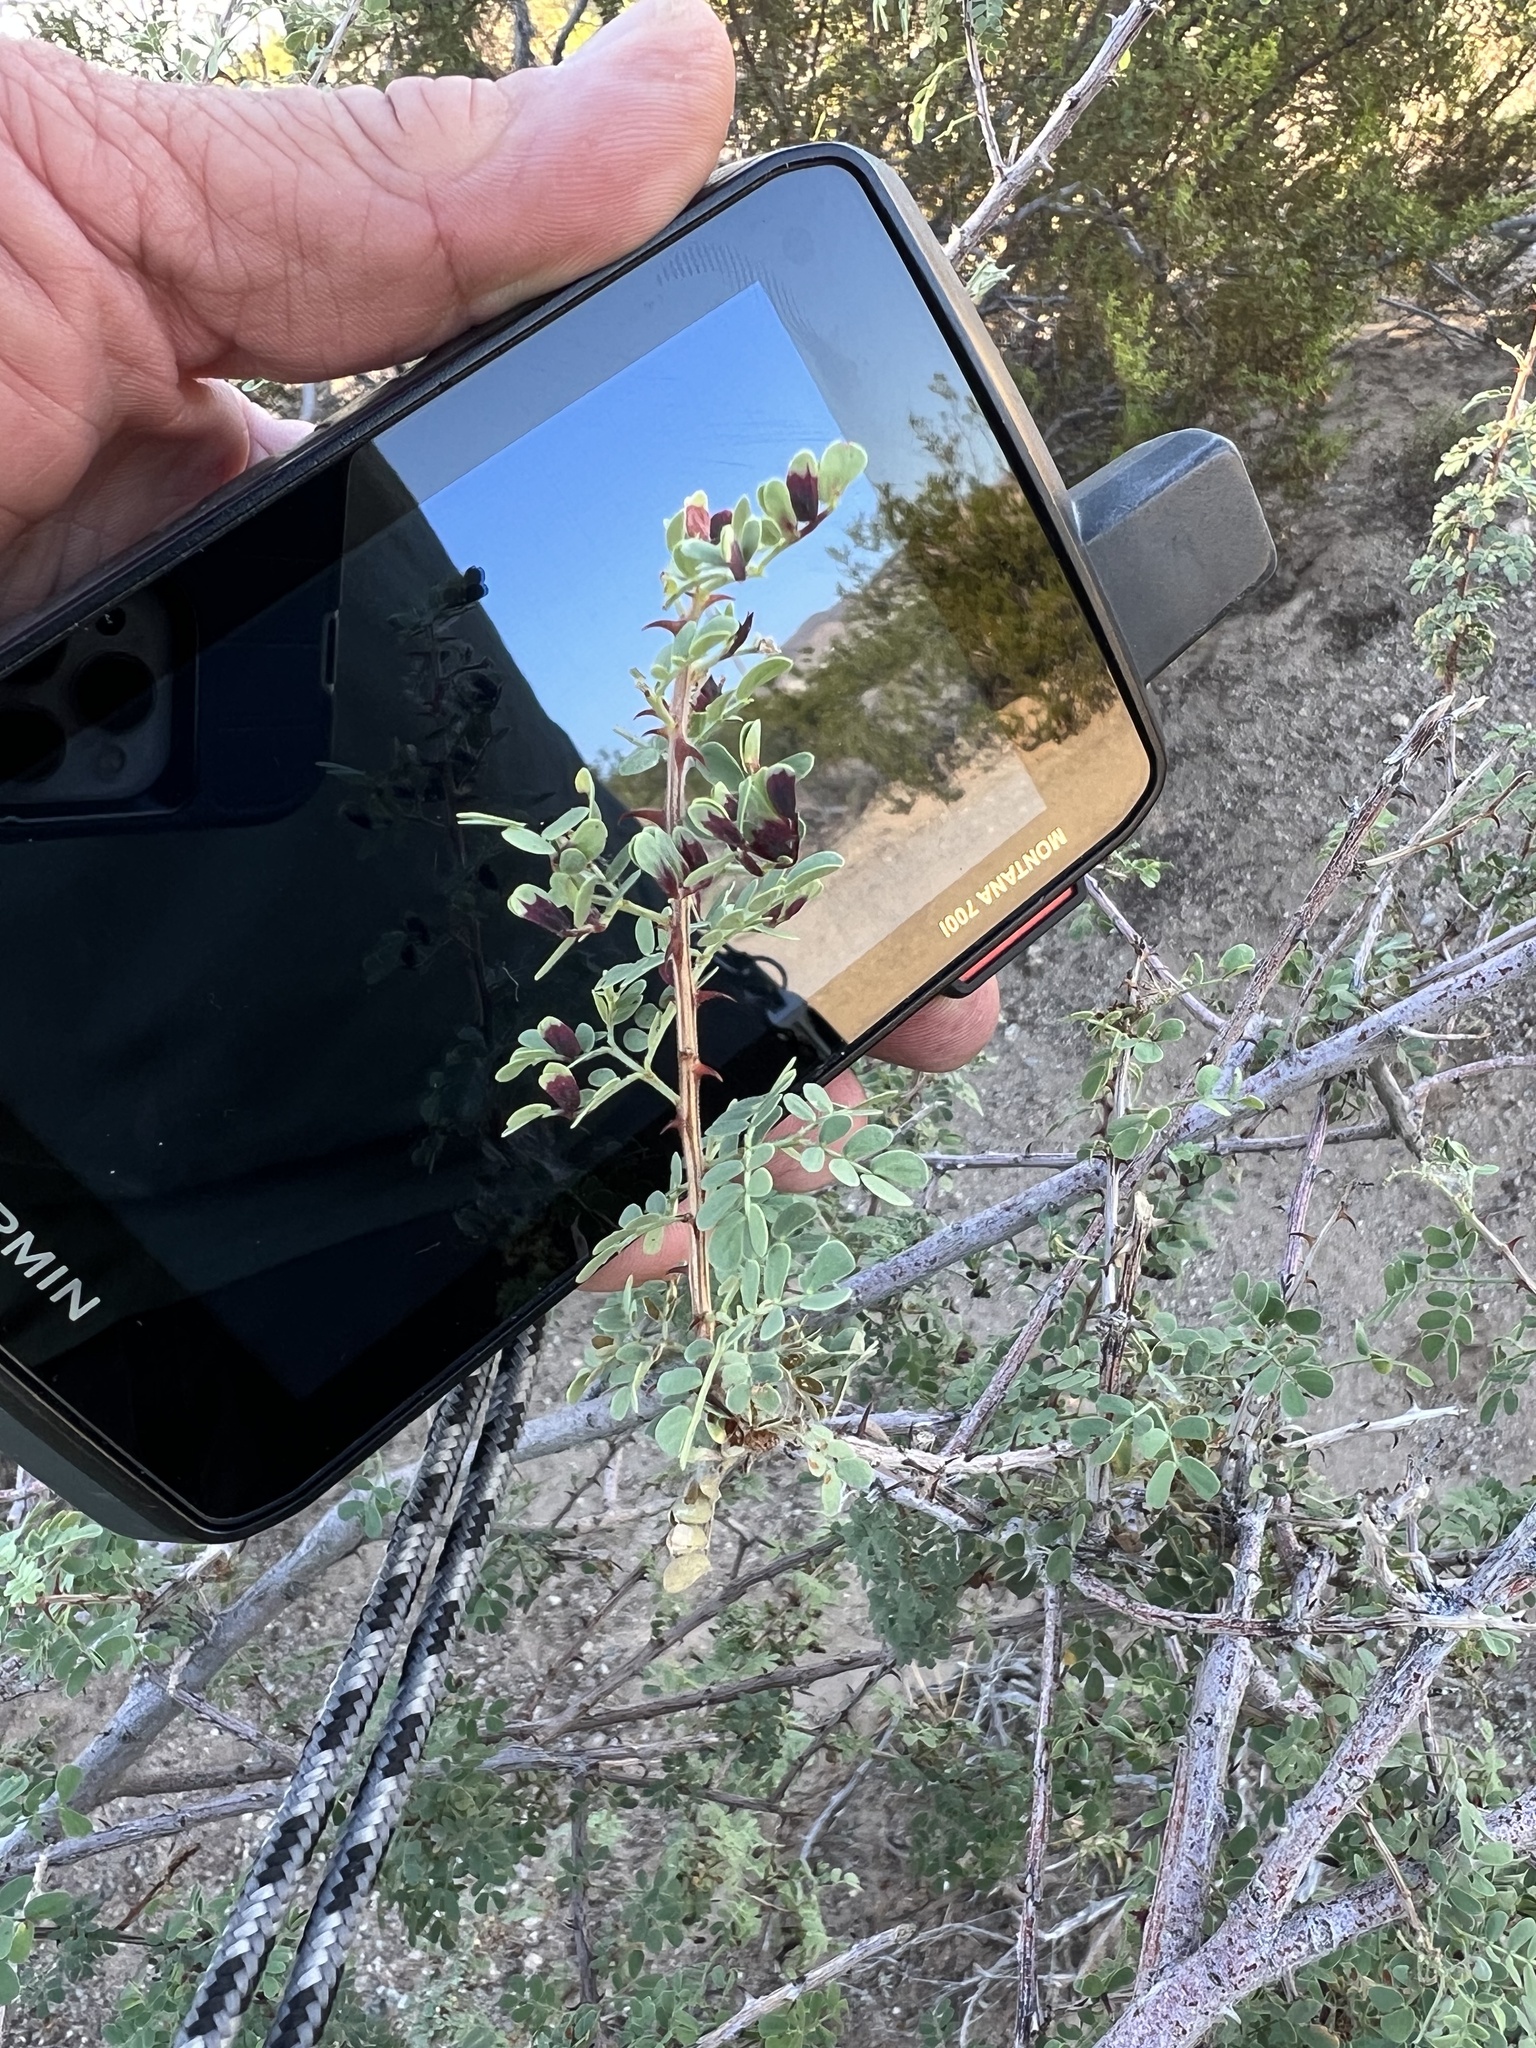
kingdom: Plantae
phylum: Tracheophyta
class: Magnoliopsida
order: Fabales
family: Fabaceae
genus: Senegalia
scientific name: Senegalia greggii
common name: Texas-mimosa
